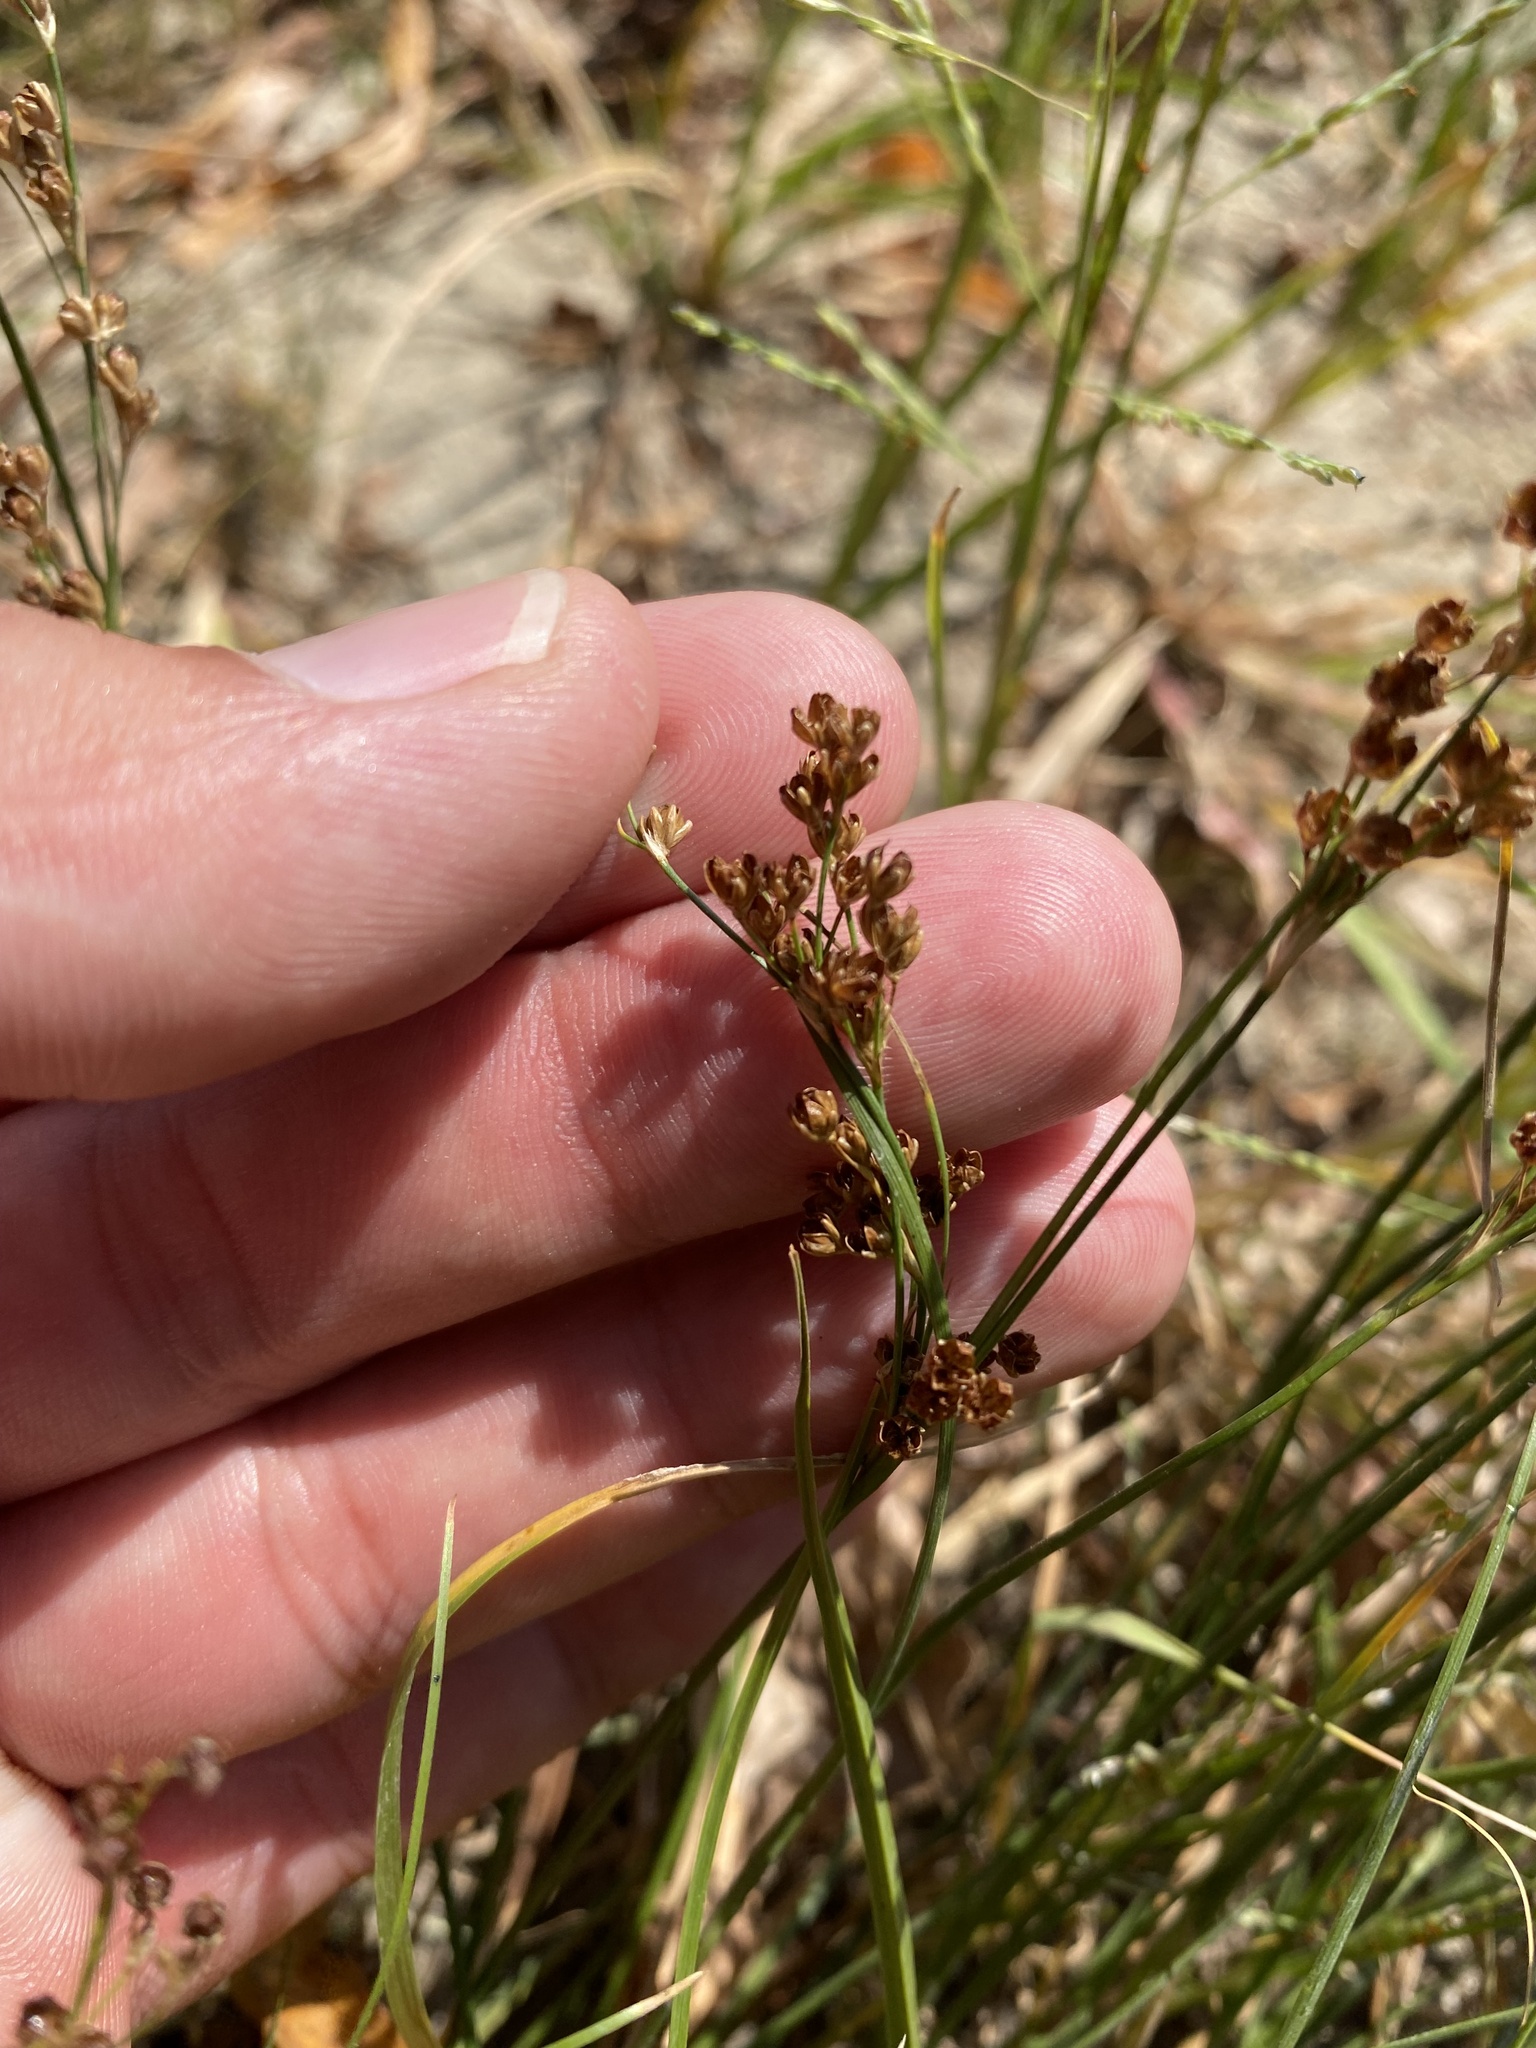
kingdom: Plantae
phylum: Tracheophyta
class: Liliopsida
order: Poales
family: Juncaceae
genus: Juncus
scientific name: Juncus compressus
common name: Round-fruited rush
